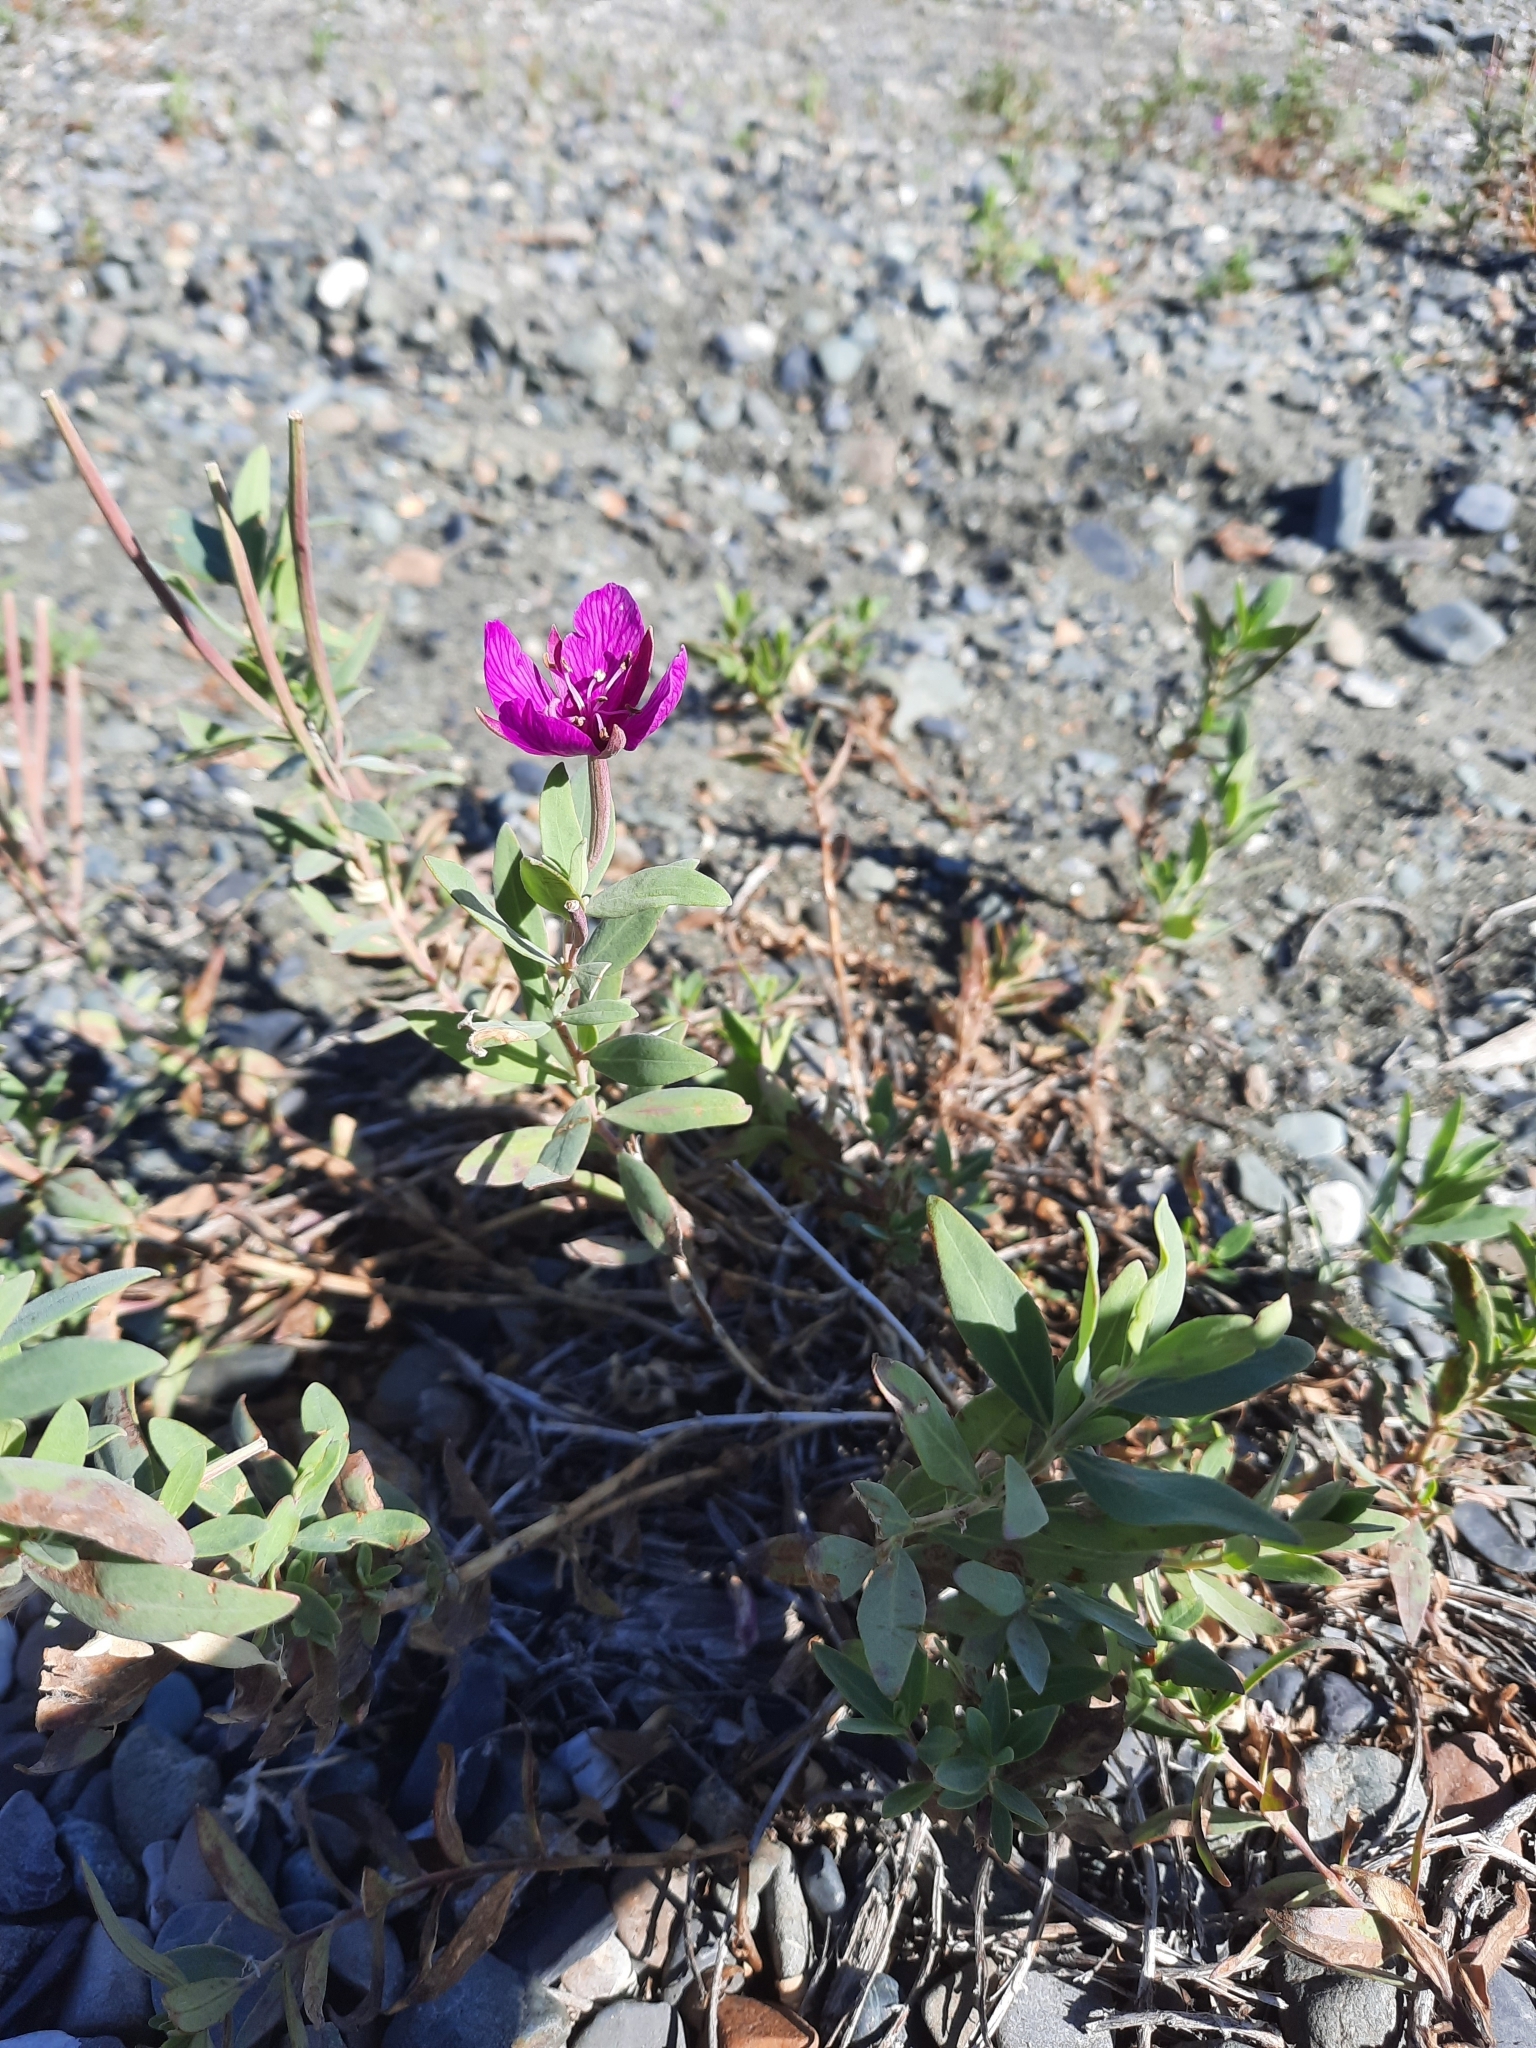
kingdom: Plantae
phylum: Tracheophyta
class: Magnoliopsida
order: Myrtales
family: Onagraceae
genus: Chamaenerion
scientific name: Chamaenerion latifolium
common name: Dwarf fireweed
